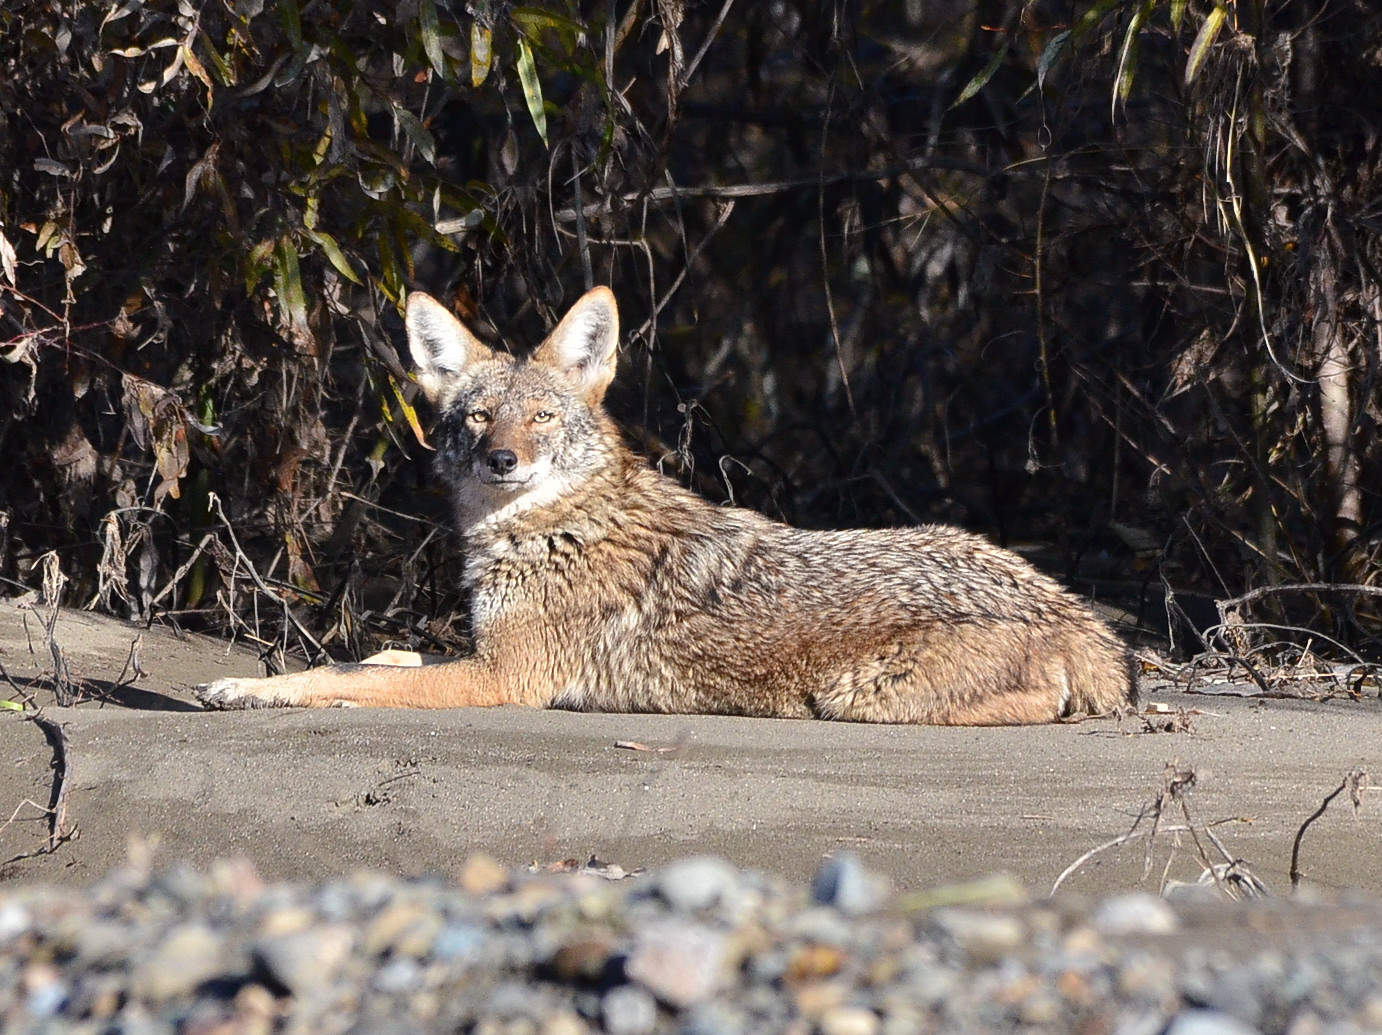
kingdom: Animalia
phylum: Chordata
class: Mammalia
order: Carnivora
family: Canidae
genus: Canis
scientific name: Canis latrans
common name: Coyote
